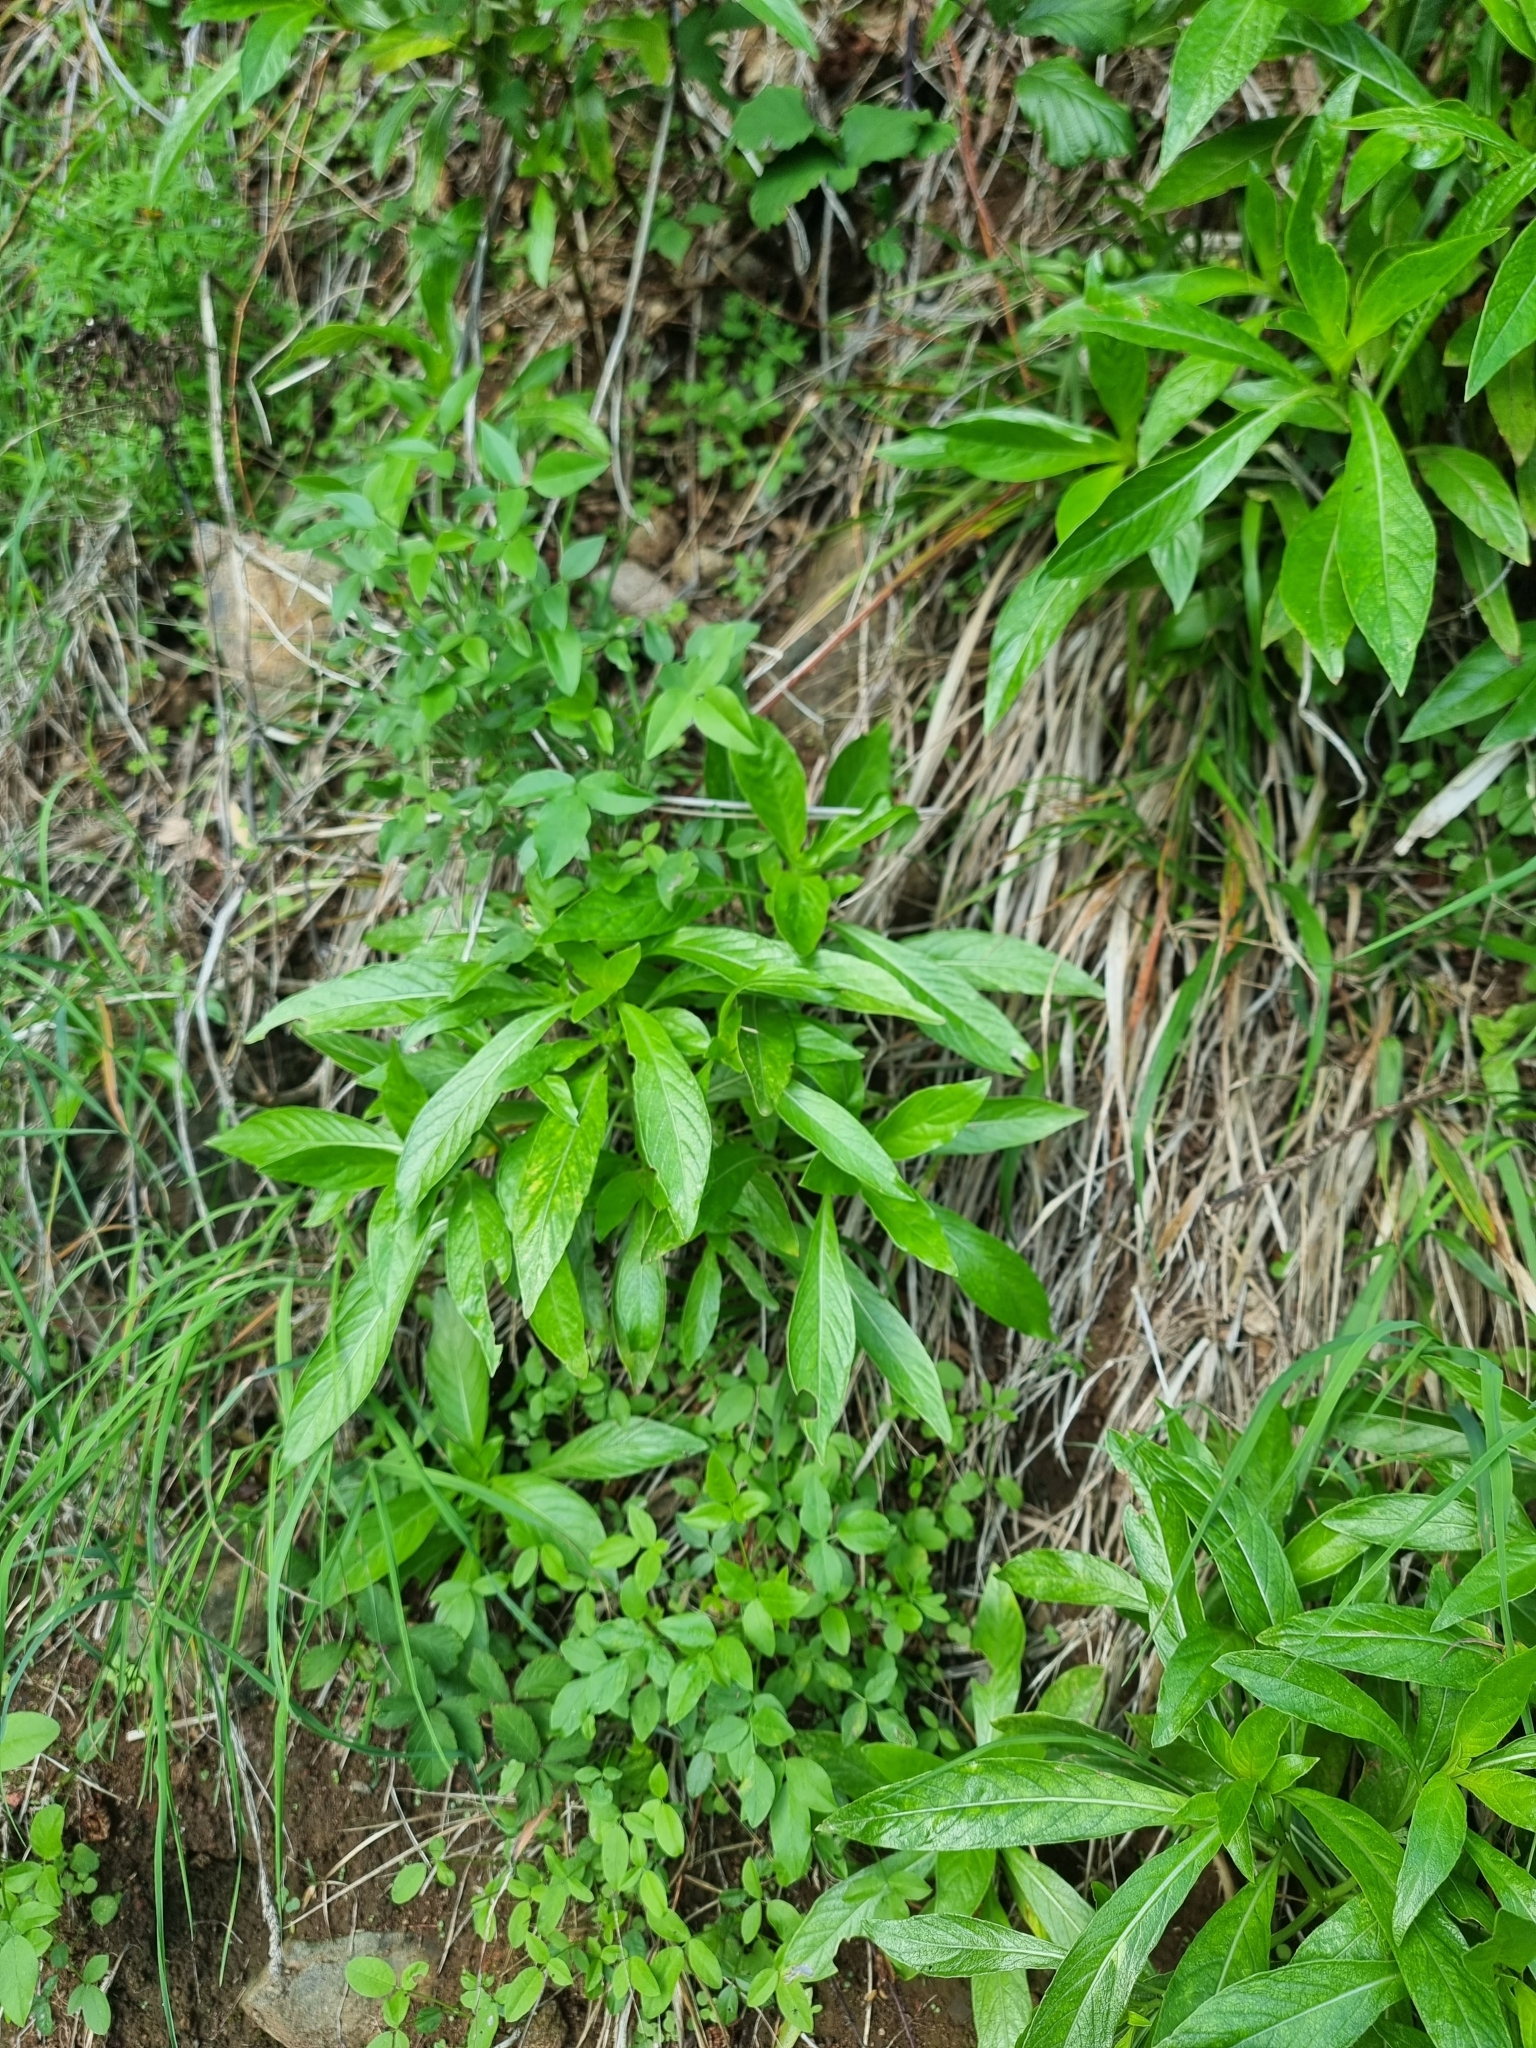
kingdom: Plantae
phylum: Tracheophyta
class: Magnoliopsida
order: Gentianales
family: Rubiaceae
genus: Phyllis
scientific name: Phyllis nobla
